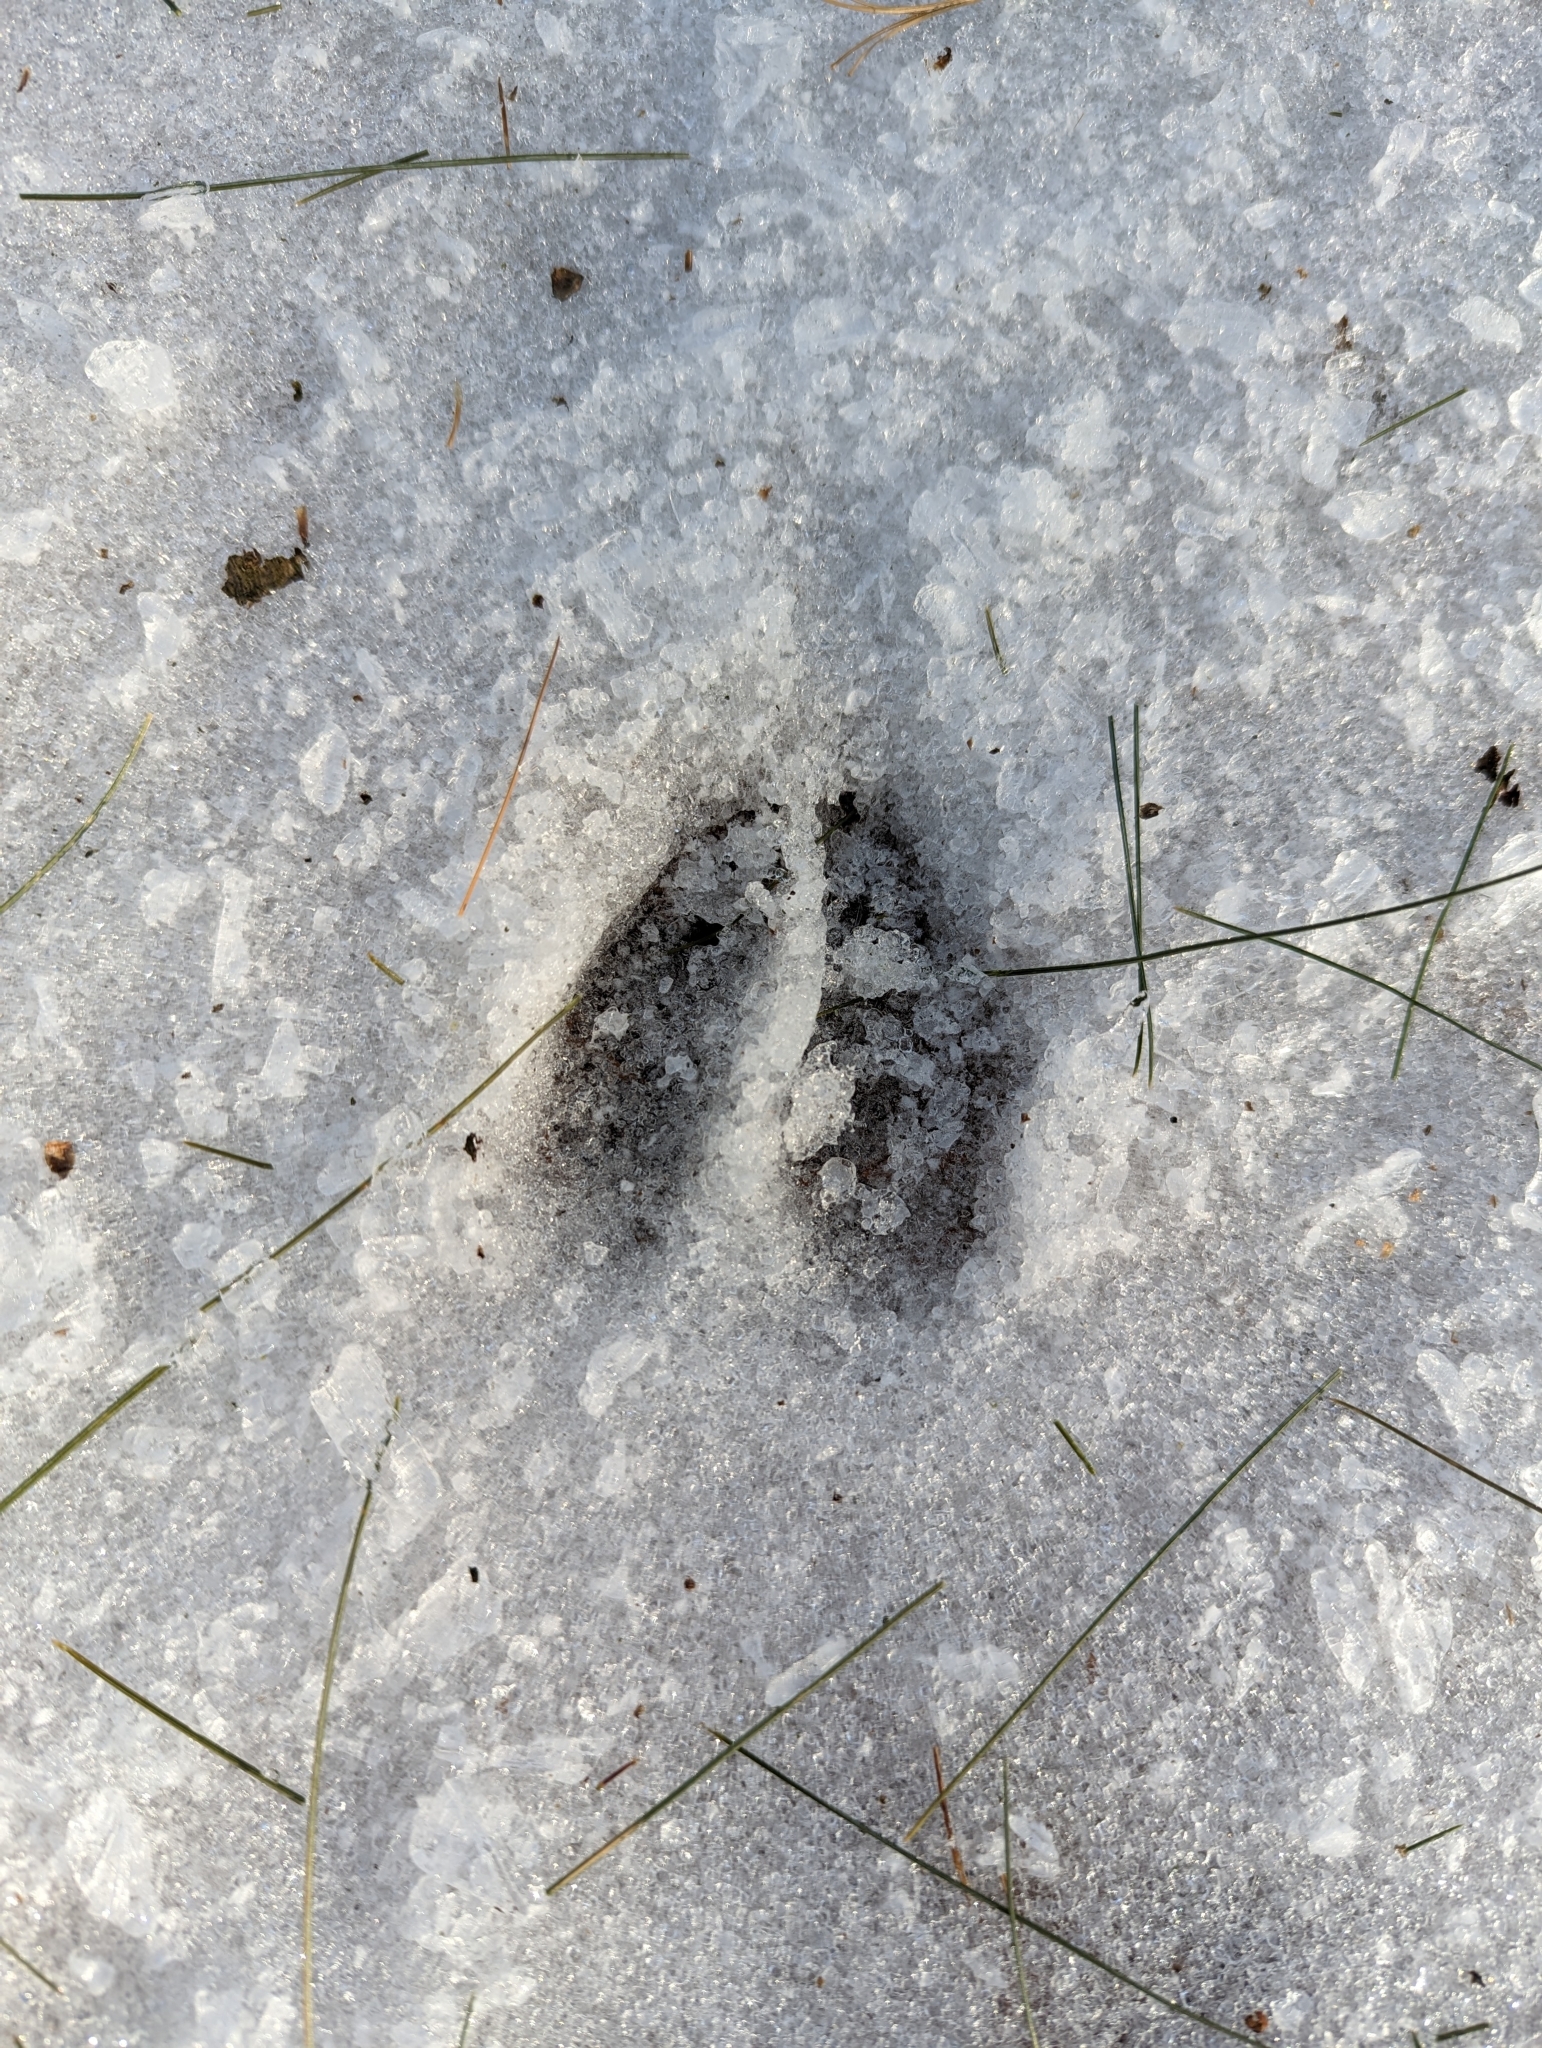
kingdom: Animalia
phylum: Chordata
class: Mammalia
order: Artiodactyla
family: Cervidae
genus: Odocoileus
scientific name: Odocoileus virginianus
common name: White-tailed deer
